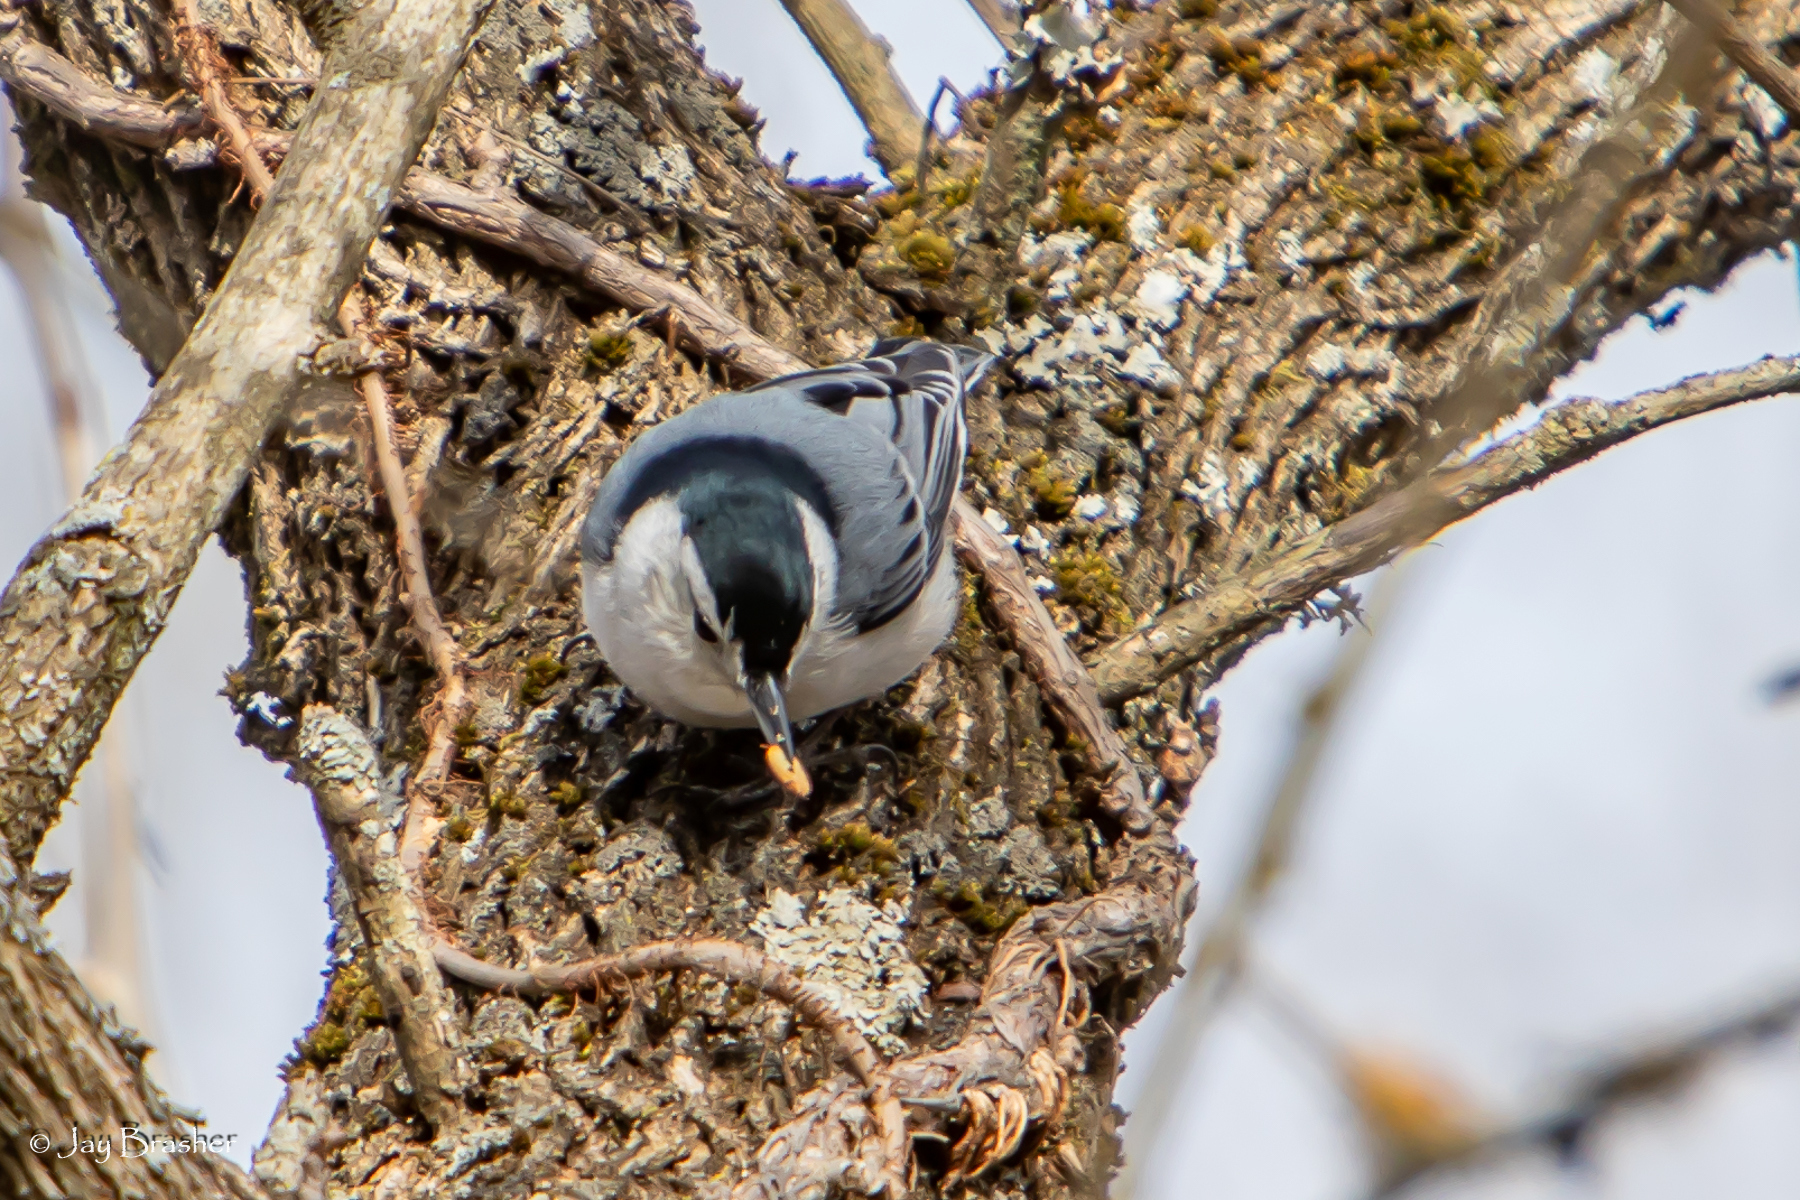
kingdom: Animalia
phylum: Chordata
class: Aves
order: Passeriformes
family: Sittidae
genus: Sitta
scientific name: Sitta carolinensis
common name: White-breasted nuthatch
